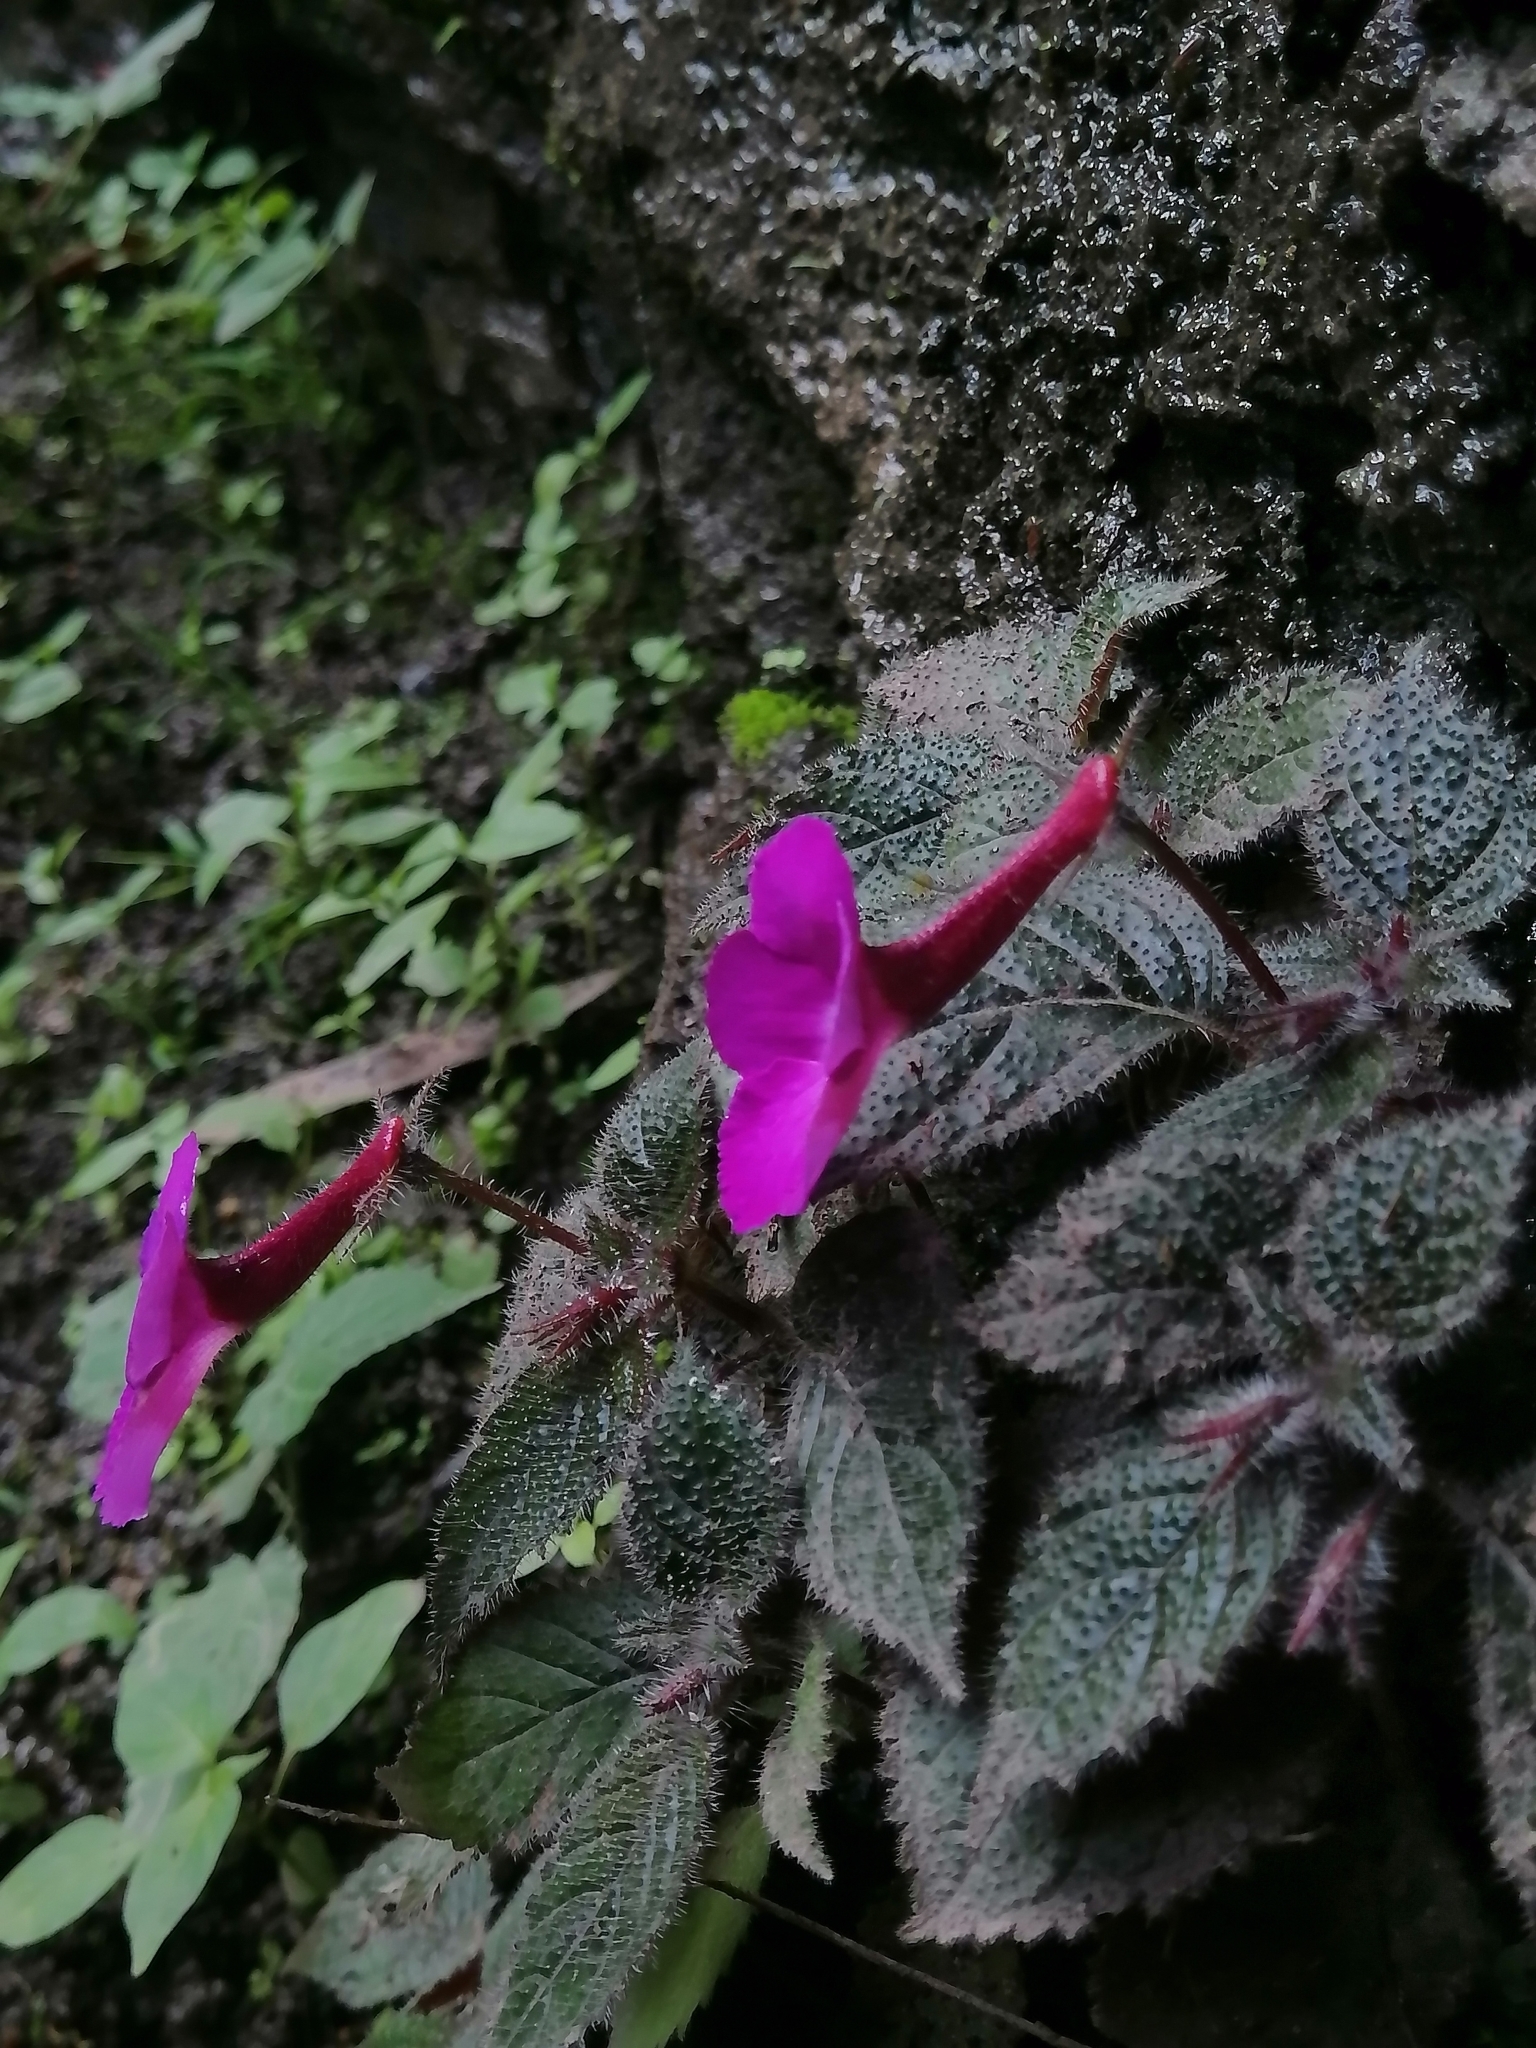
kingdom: Plantae
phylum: Tracheophyta
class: Magnoliopsida
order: Lamiales
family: Gesneriaceae
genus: Achimenes
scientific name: Achimenes grandiflora
